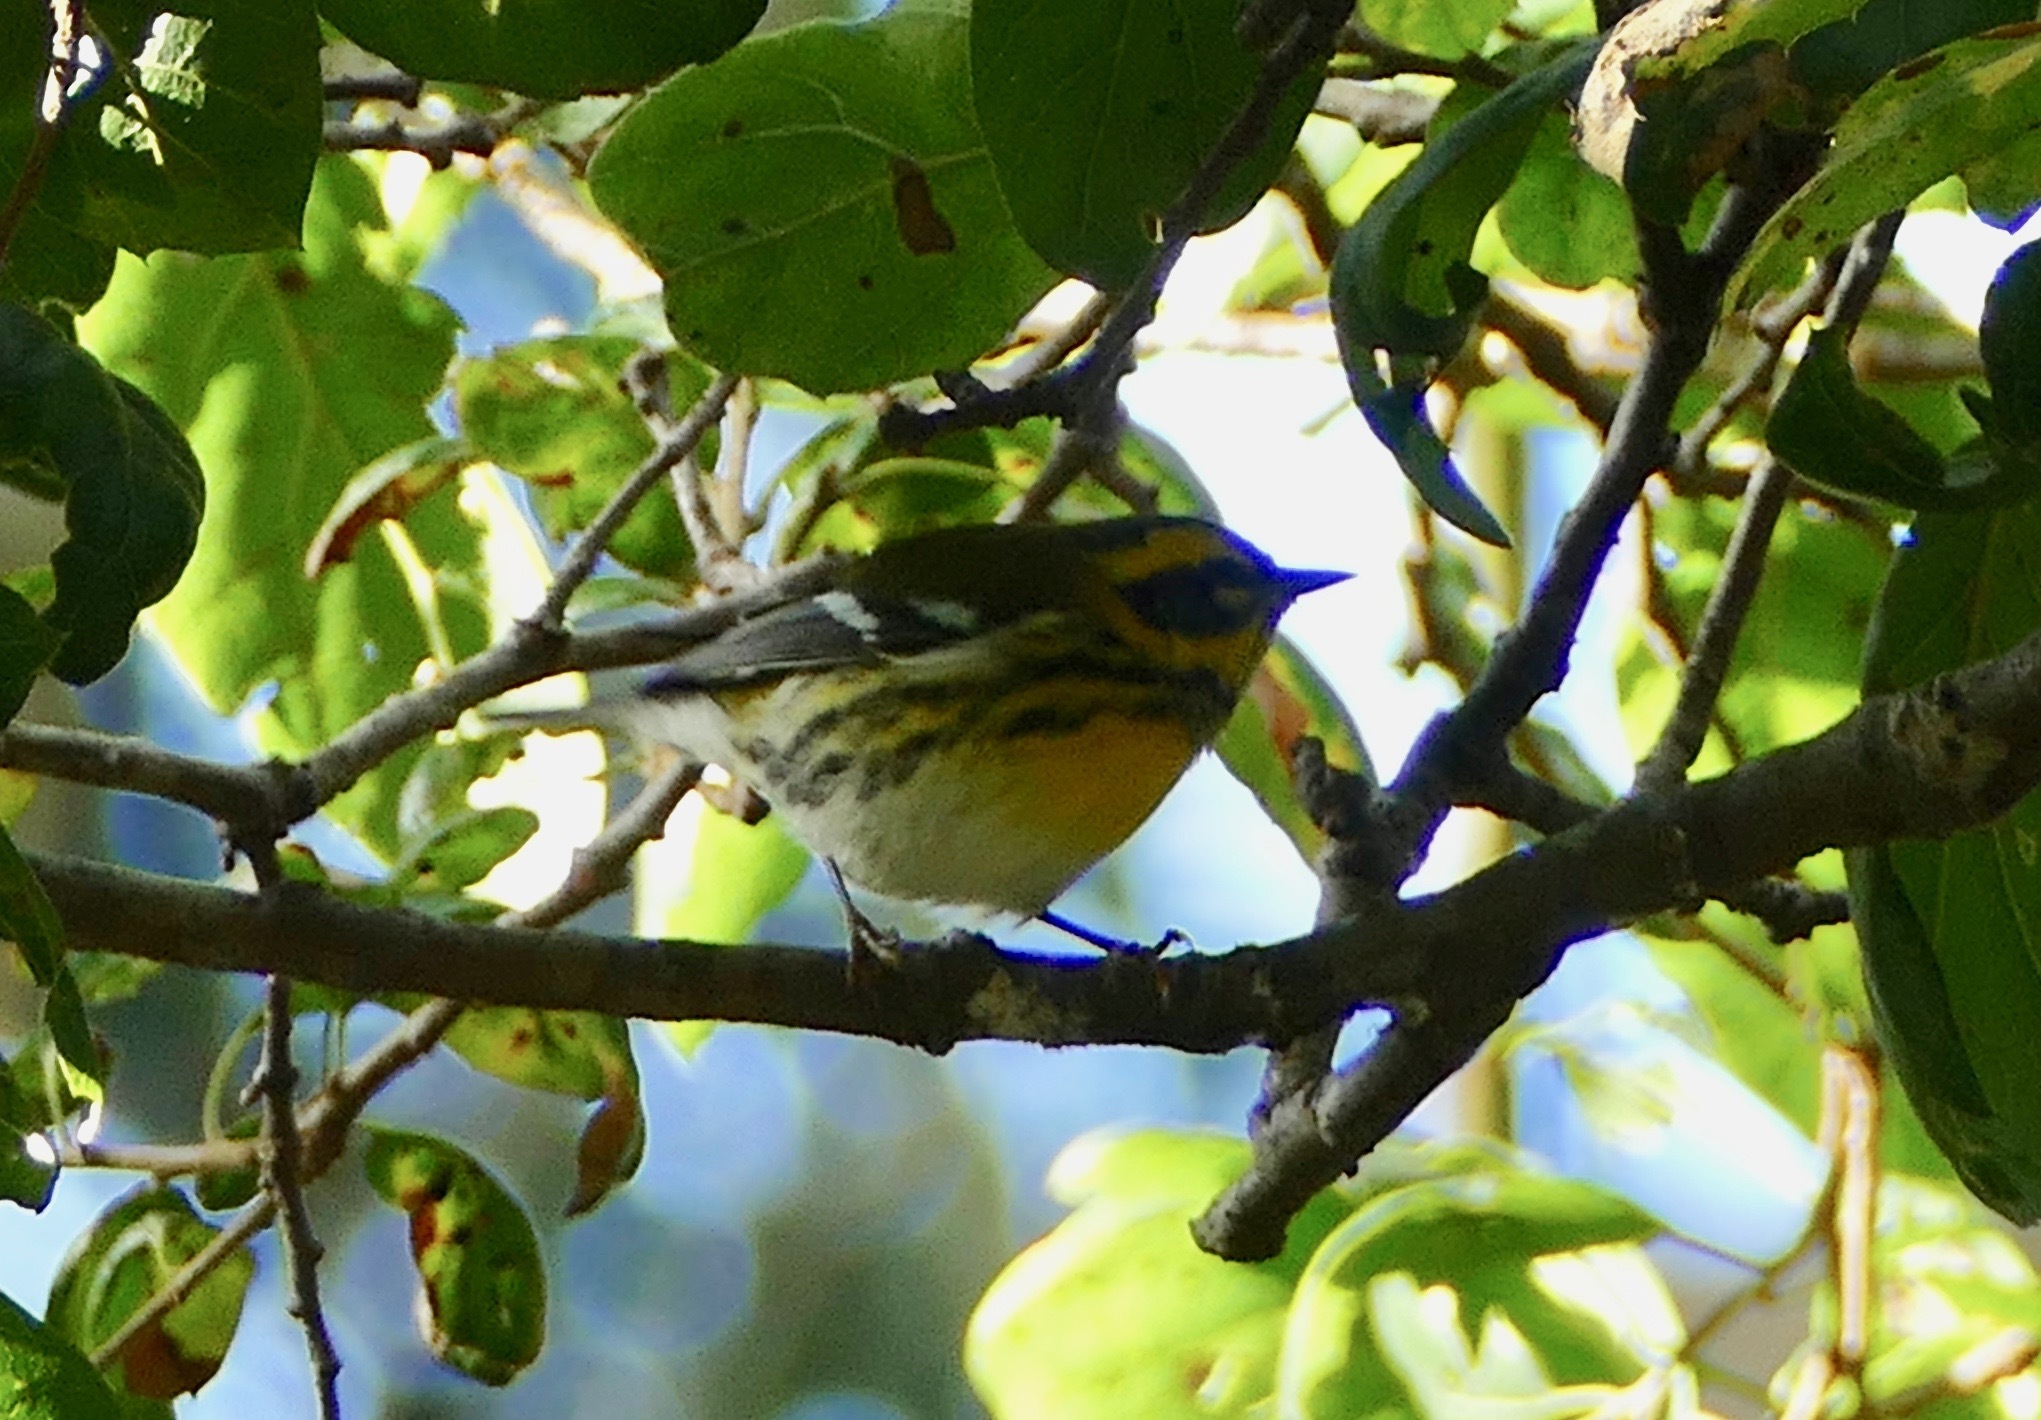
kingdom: Animalia
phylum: Chordata
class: Aves
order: Passeriformes
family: Parulidae
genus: Setophaga
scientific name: Setophaga townsendi
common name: Townsend's warbler
